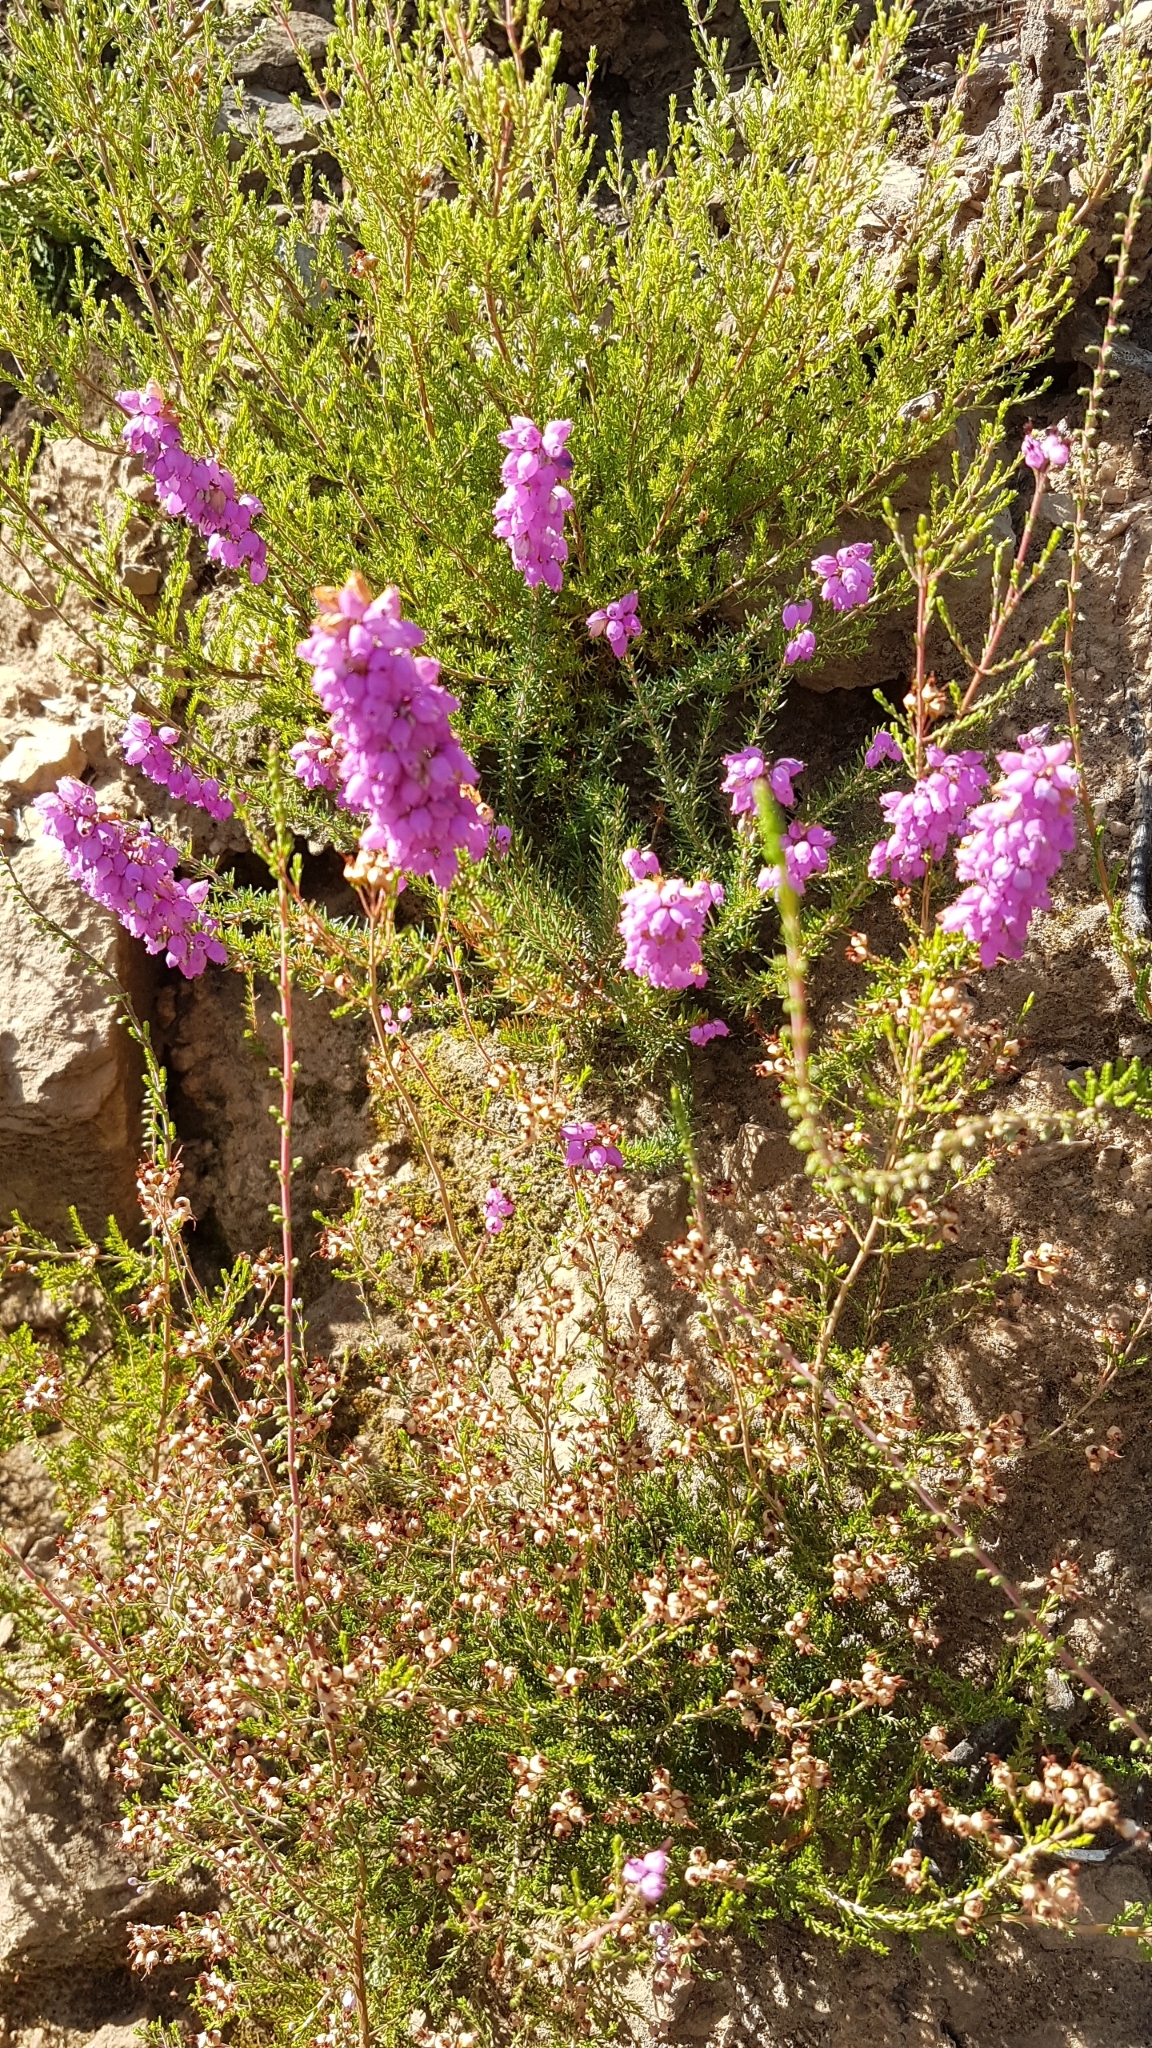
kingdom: Plantae
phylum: Tracheophyta
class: Magnoliopsida
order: Ericales
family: Ericaceae
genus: Erica
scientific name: Erica cinerea
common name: Bell heather
